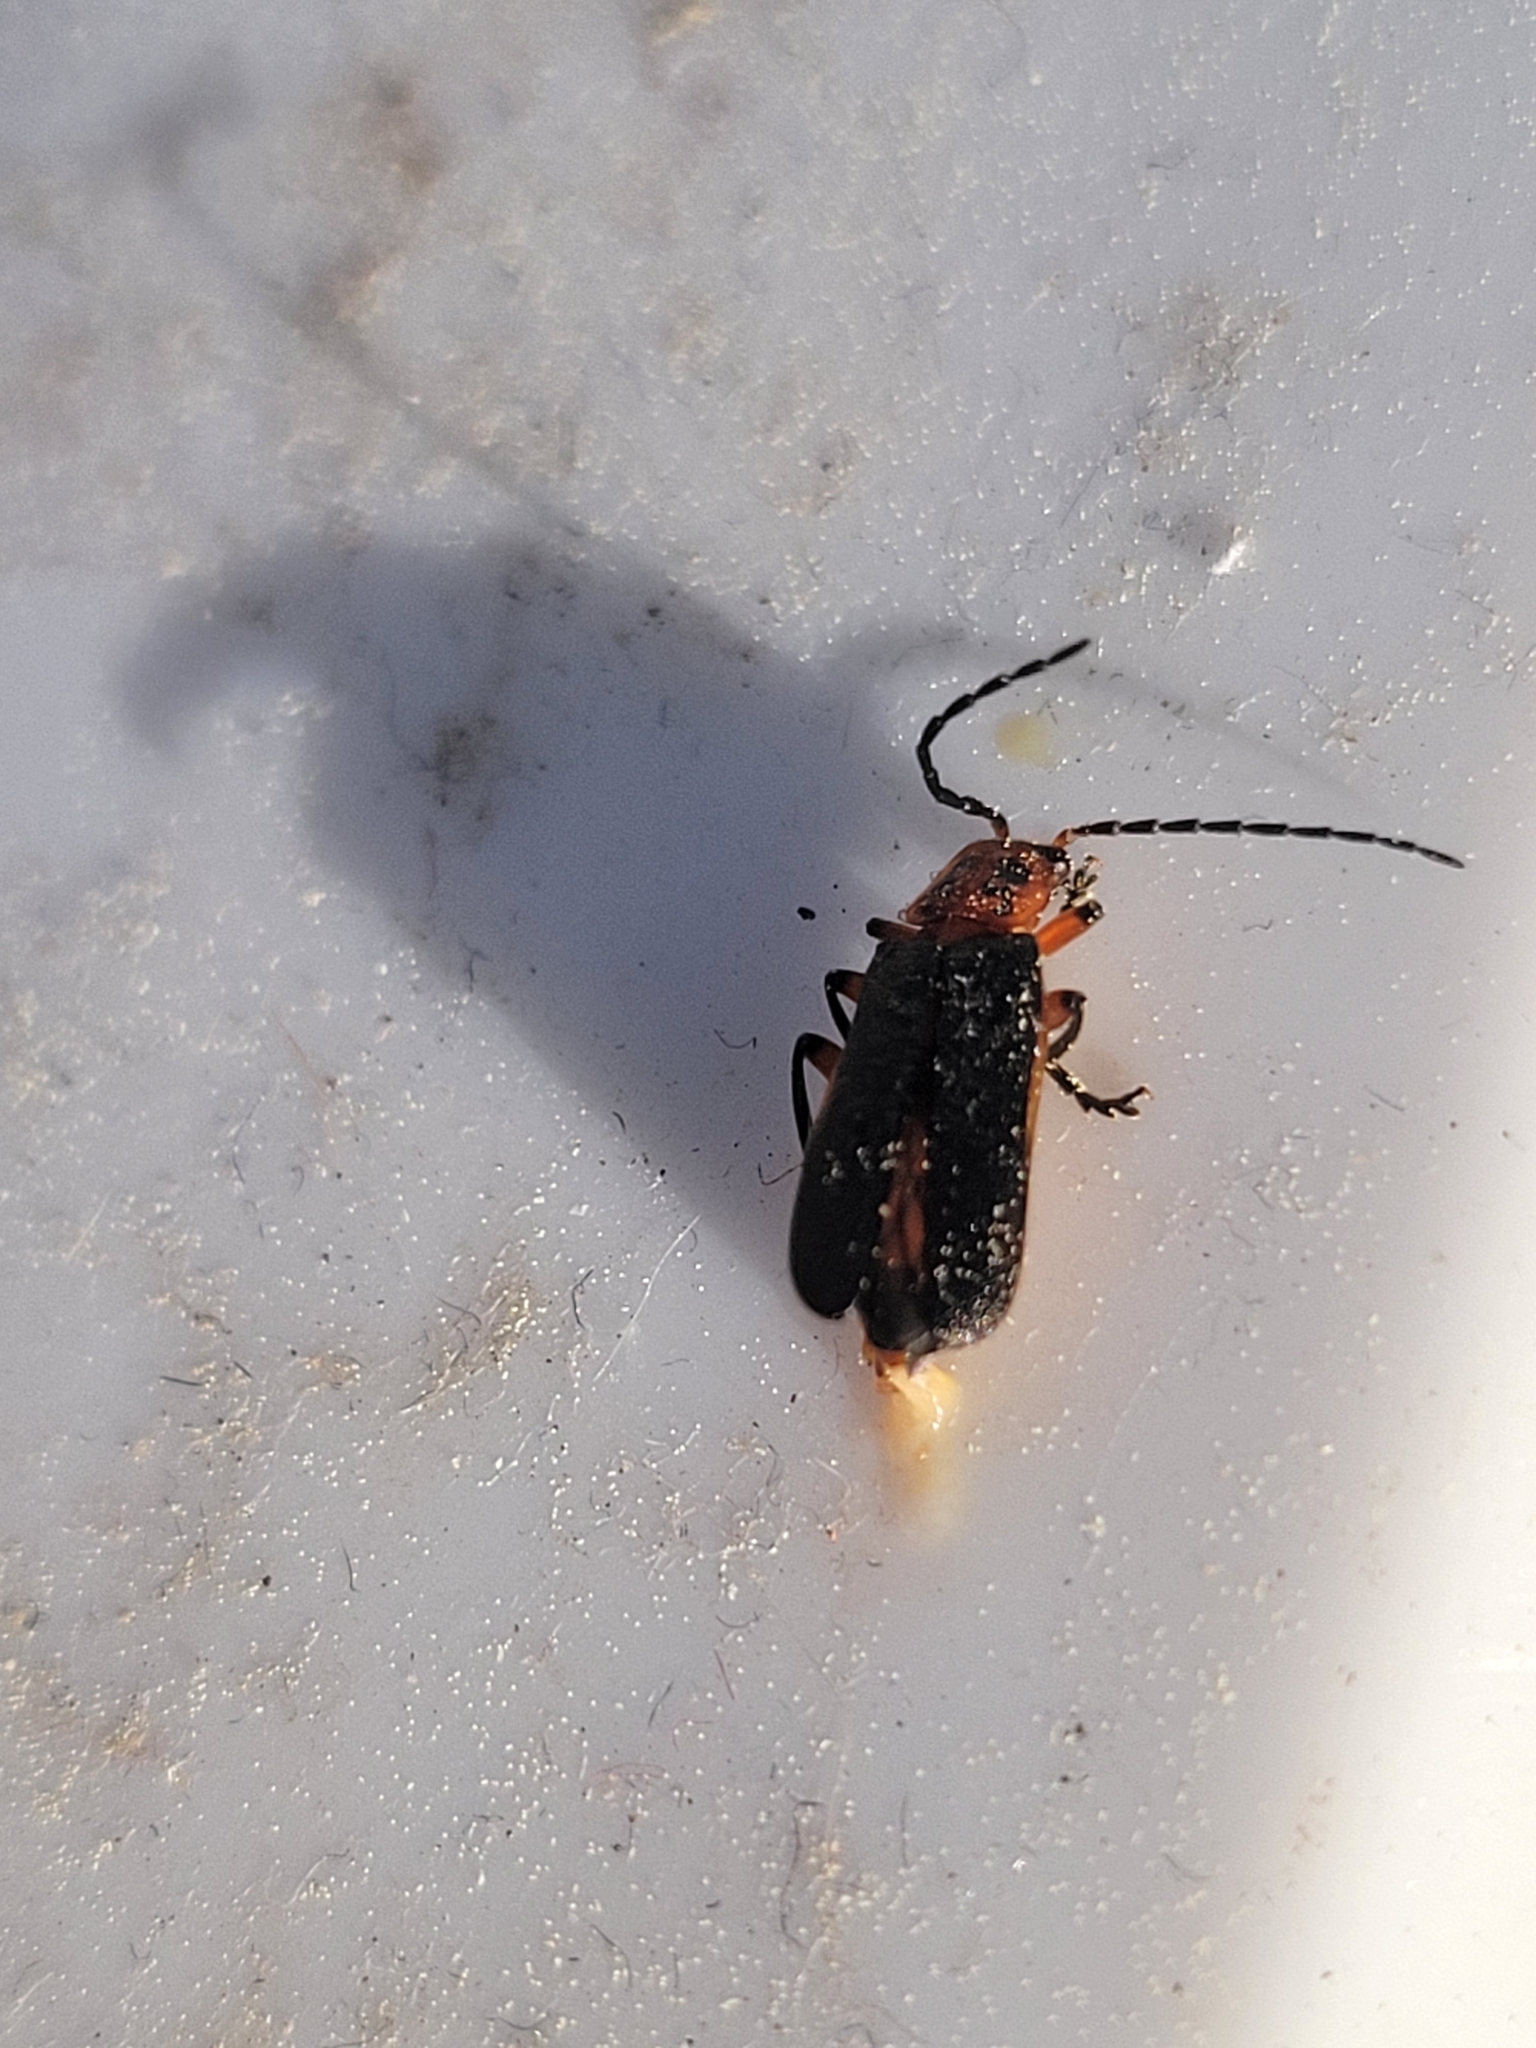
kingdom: Animalia
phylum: Arthropoda
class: Insecta
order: Coleoptera
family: Cantharidae
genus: Atalantycha
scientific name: Atalantycha bilineata
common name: Two-lined leatherwing
